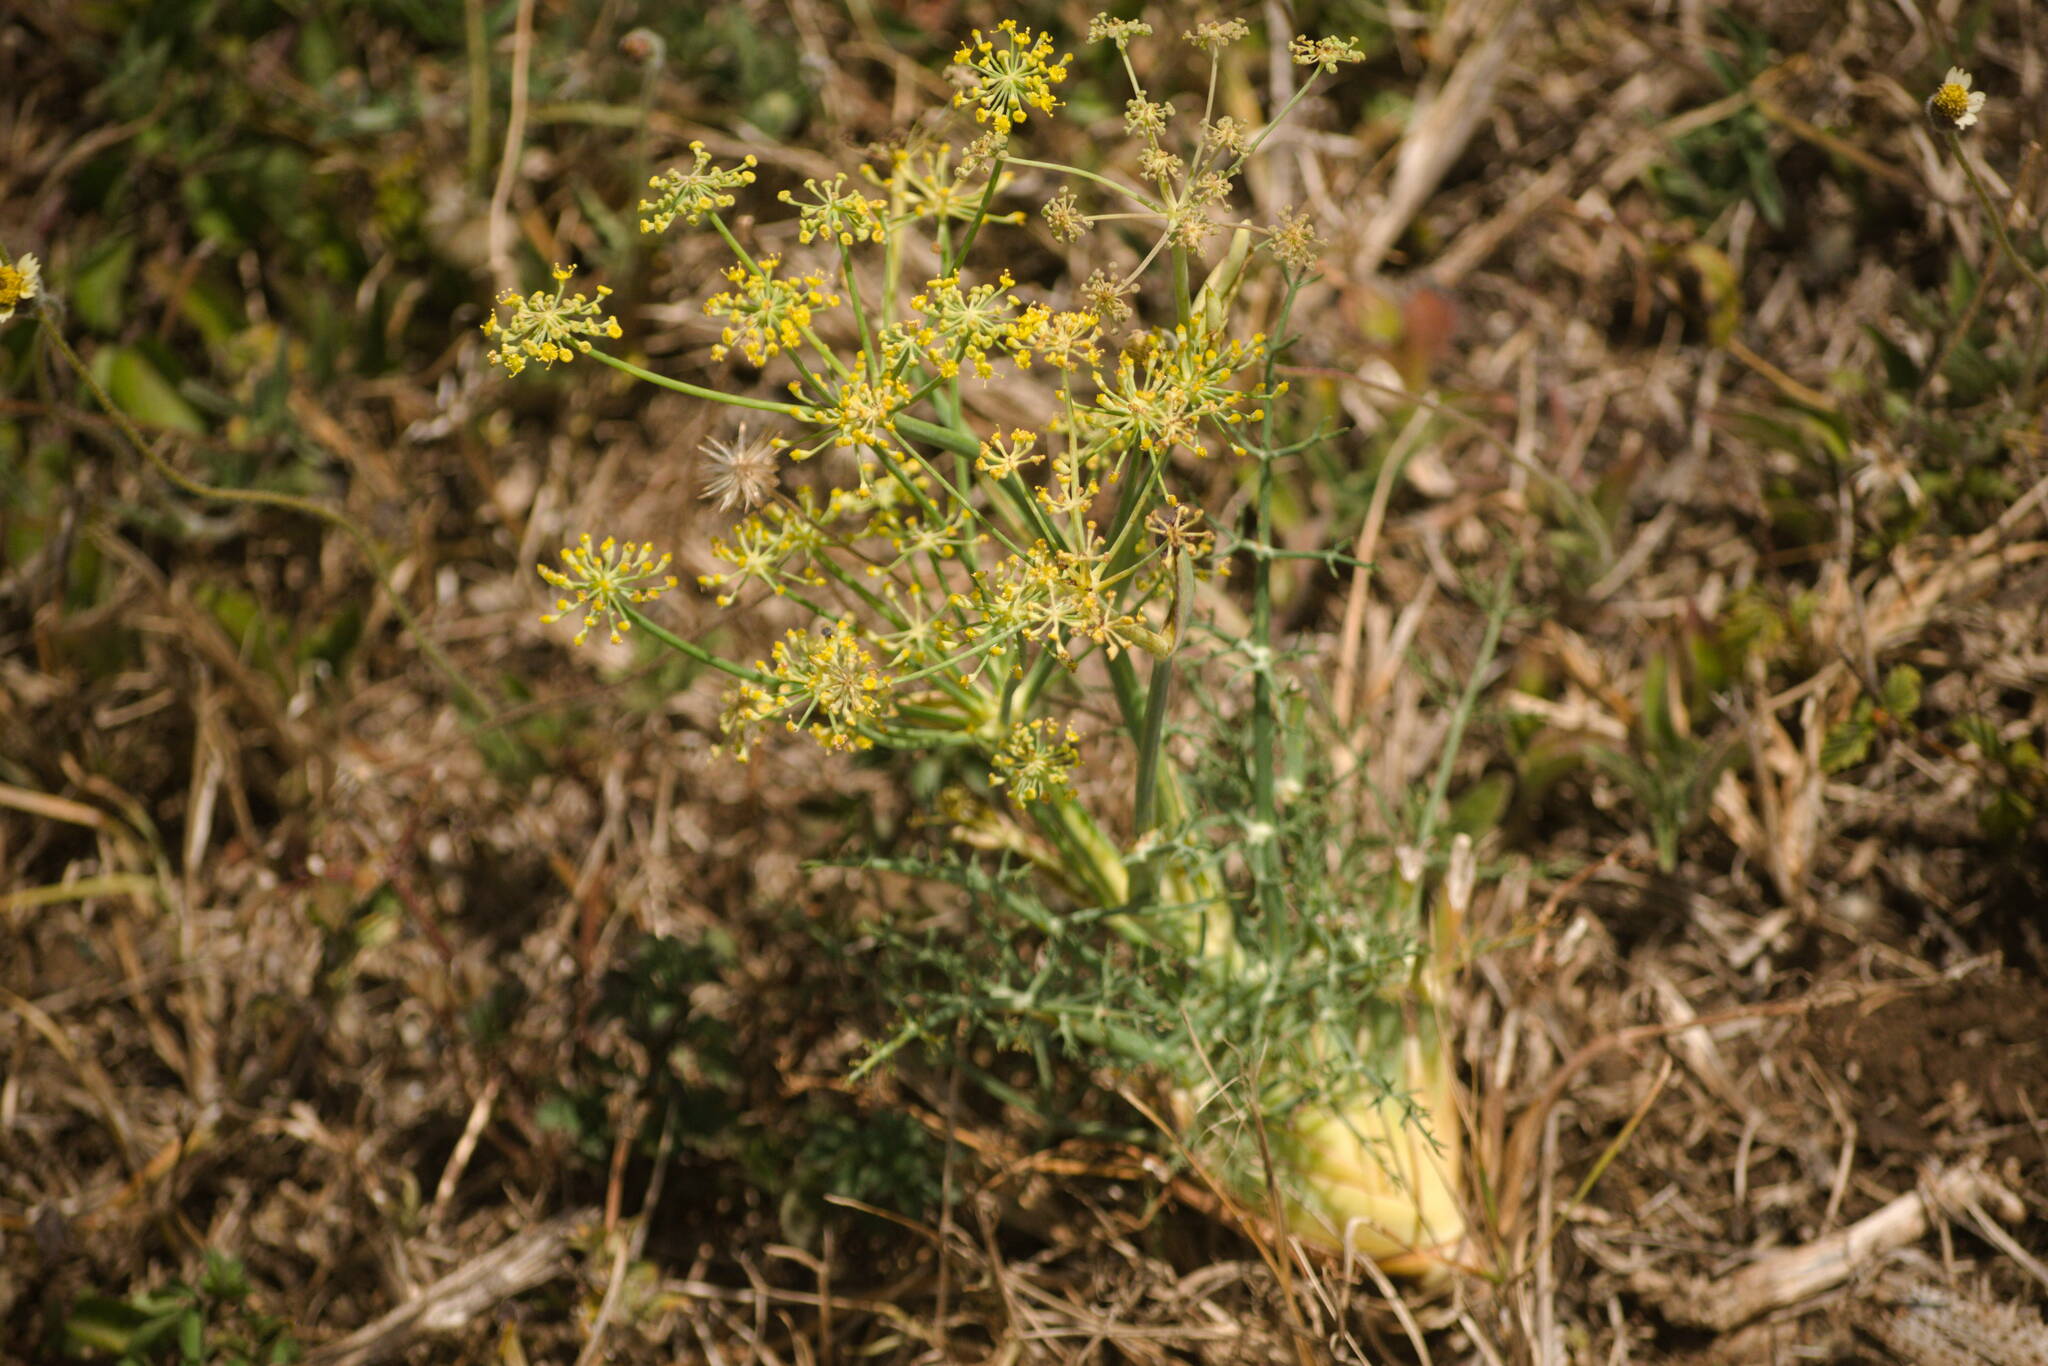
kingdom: Plantae
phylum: Tracheophyta
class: Magnoliopsida
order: Apiales
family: Apiaceae
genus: Foeniculum
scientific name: Foeniculum vulgare
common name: Fennel
